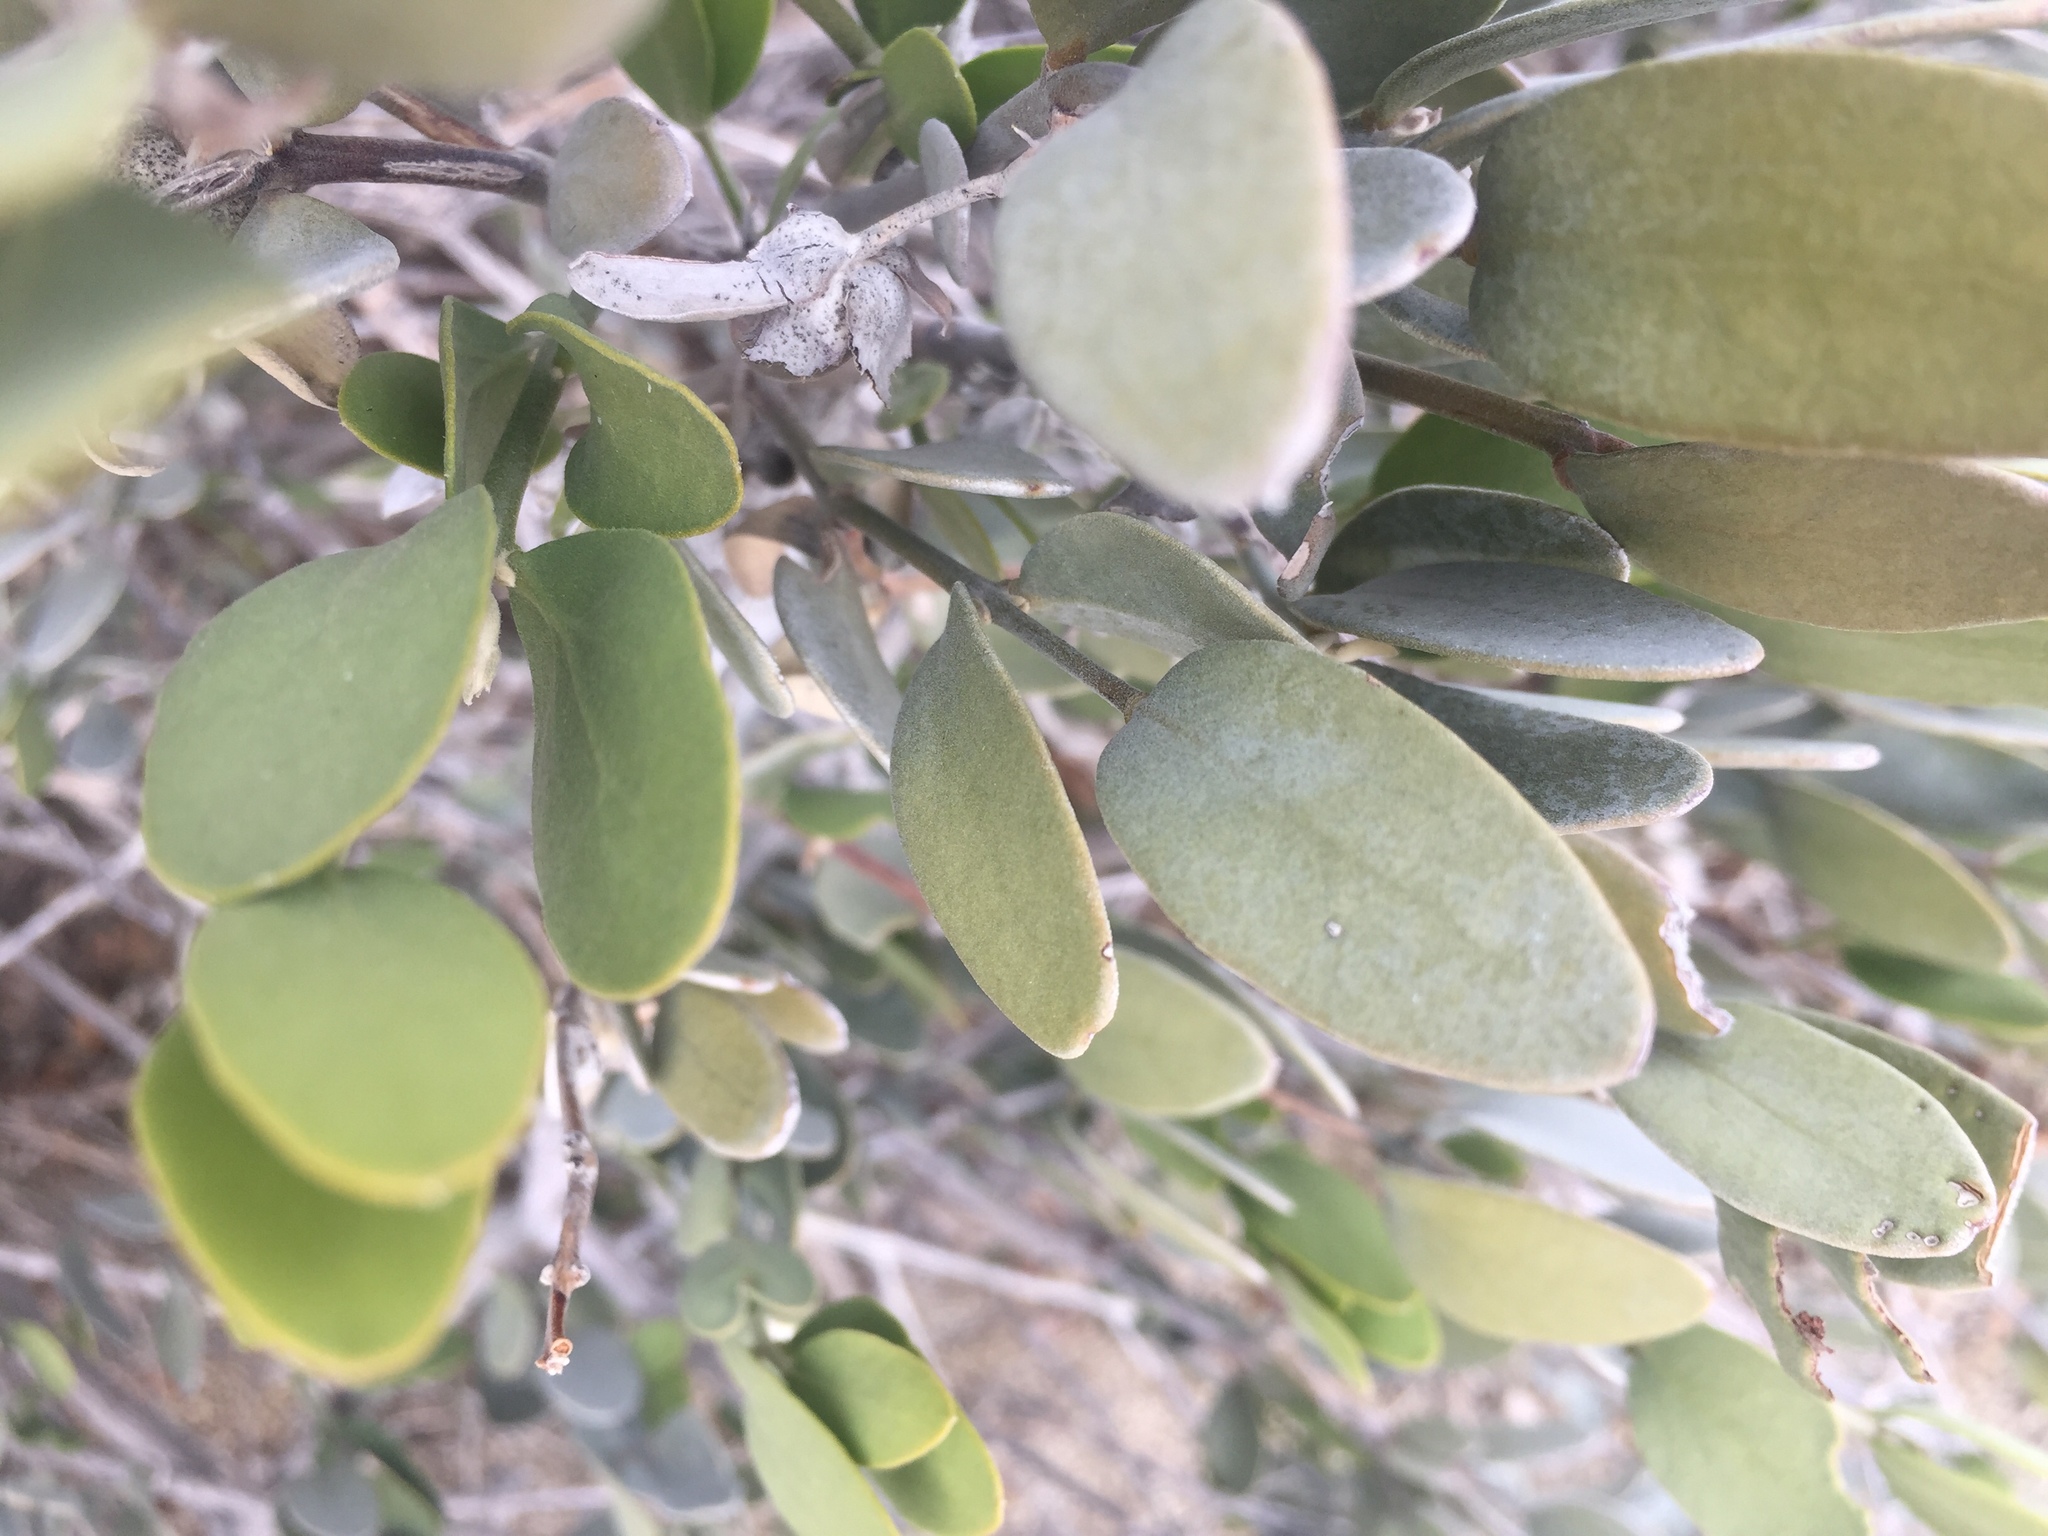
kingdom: Plantae
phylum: Tracheophyta
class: Magnoliopsida
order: Caryophyllales
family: Simmondsiaceae
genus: Simmondsia
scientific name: Simmondsia chinensis
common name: Jojoba
